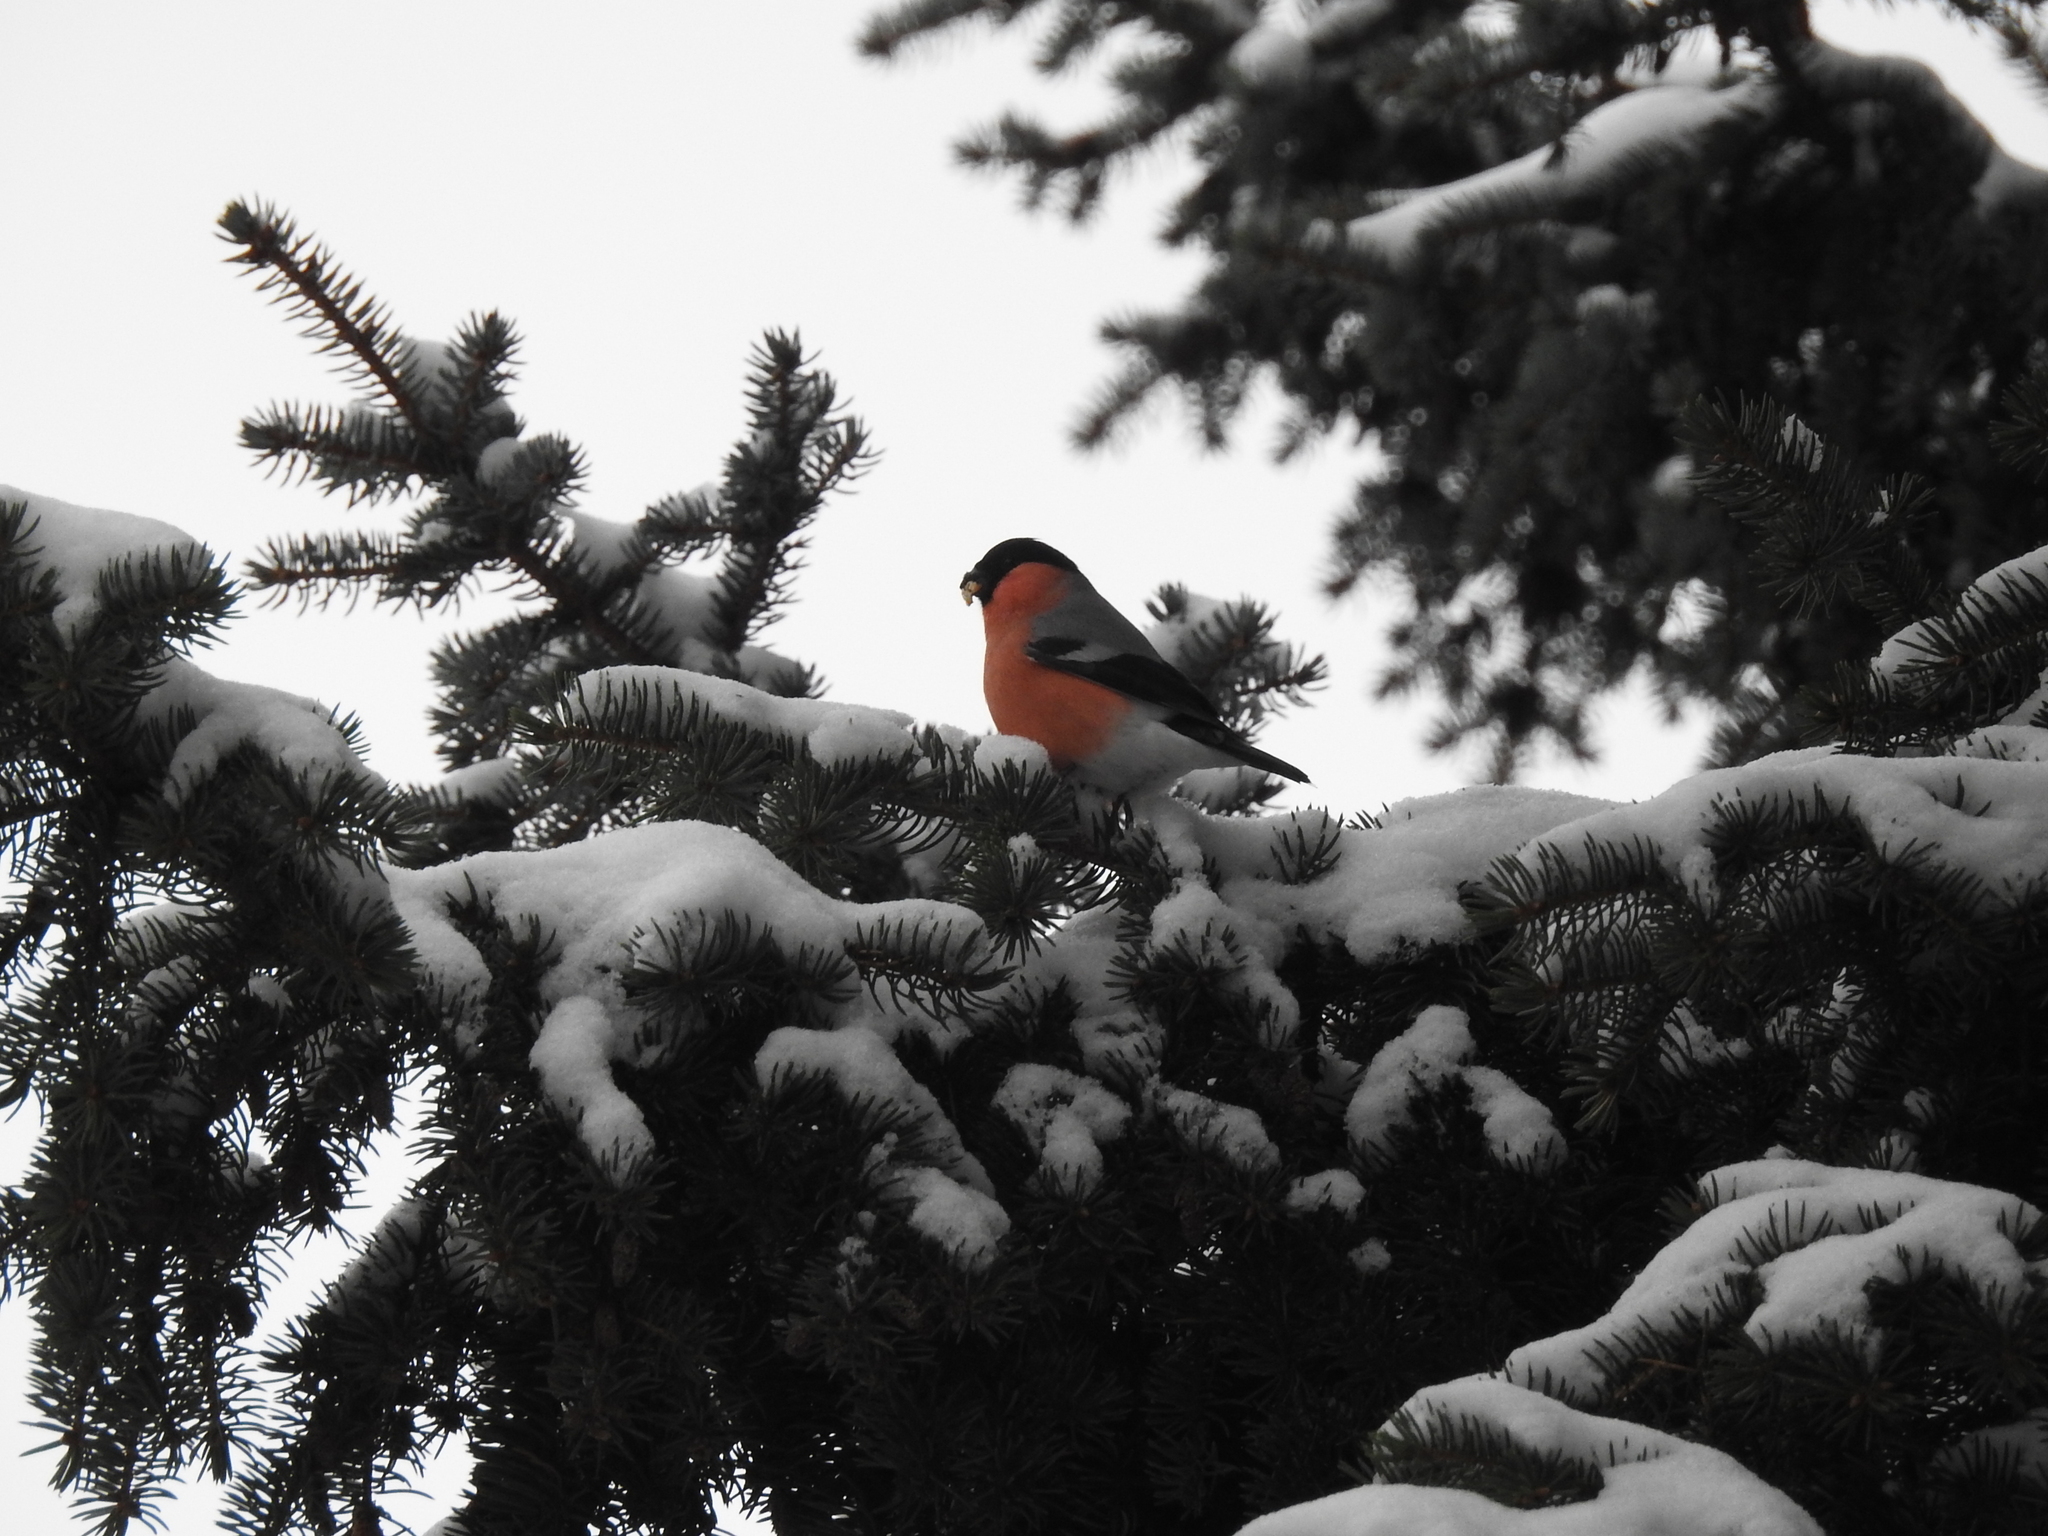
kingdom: Animalia
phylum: Chordata
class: Aves
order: Passeriformes
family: Fringillidae
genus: Pyrrhula
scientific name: Pyrrhula pyrrhula
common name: Eurasian bullfinch
